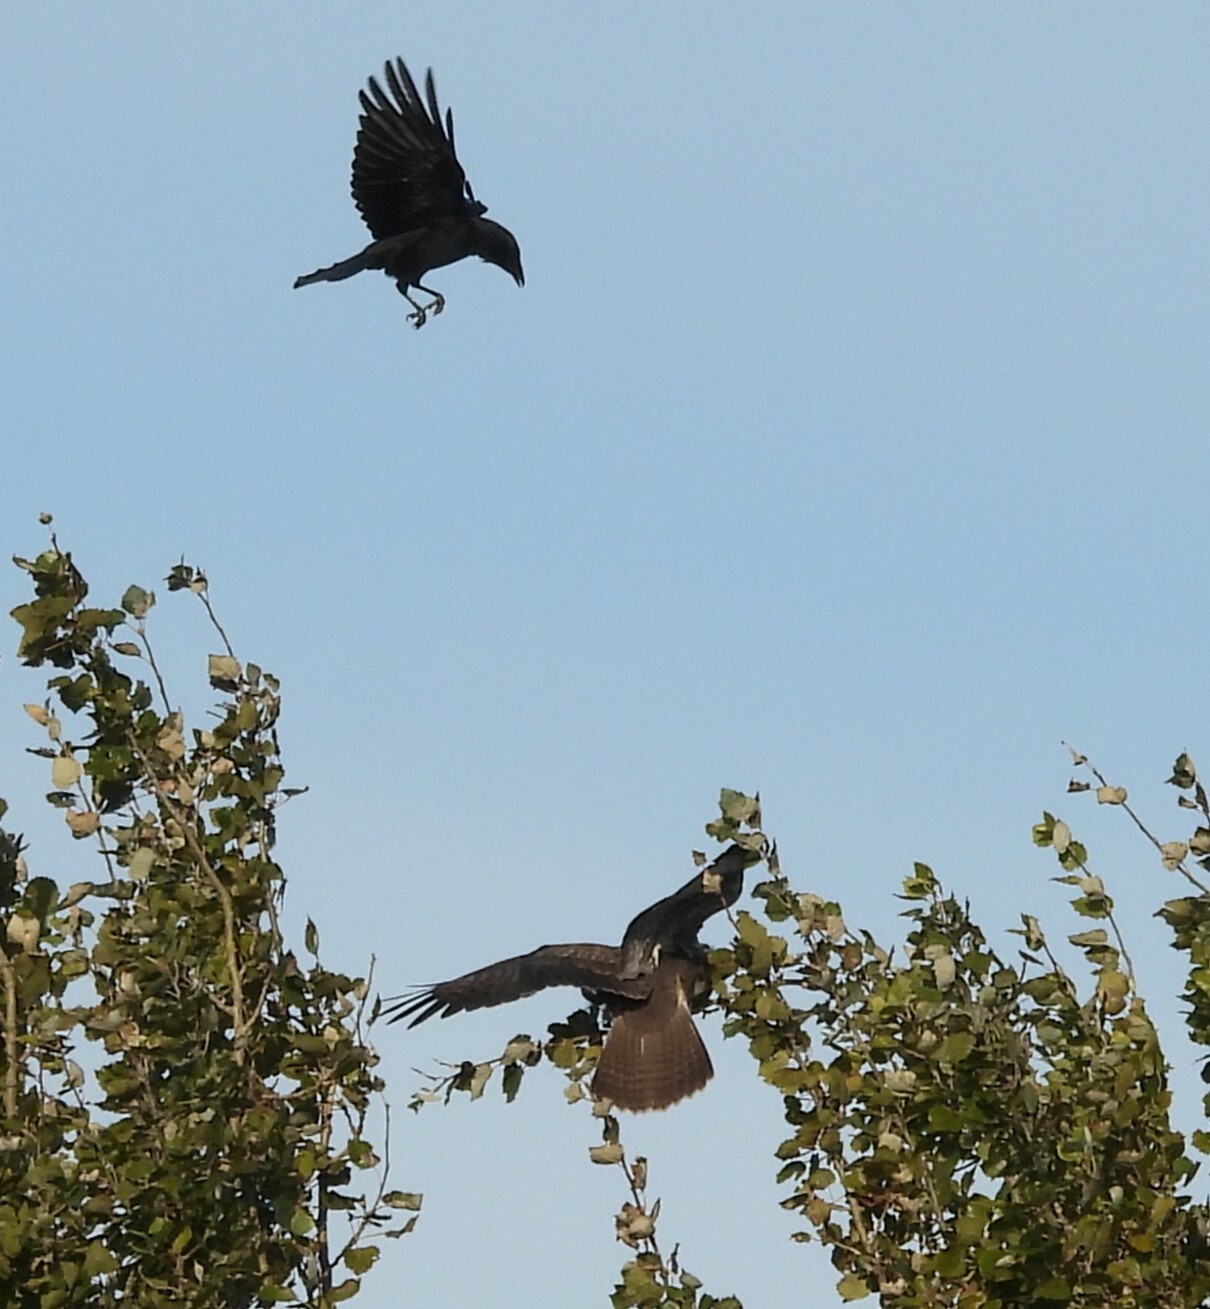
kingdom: Animalia
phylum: Chordata
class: Aves
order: Accipitriformes
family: Accipitridae
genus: Buteo
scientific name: Buteo buteo
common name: Common buzzard
